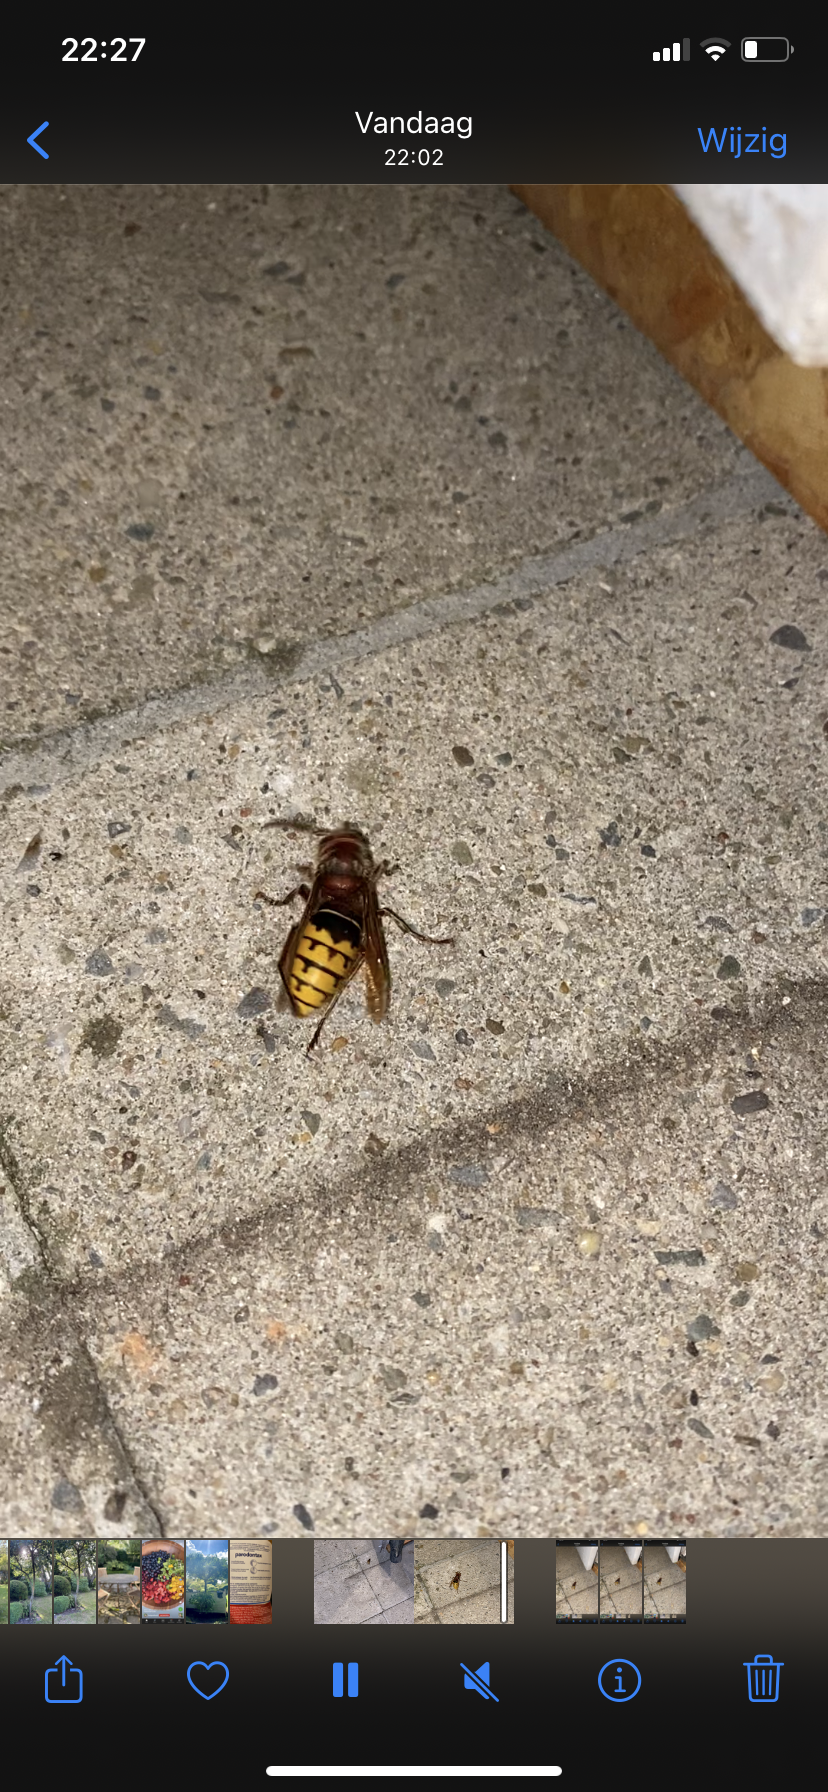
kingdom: Animalia
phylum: Arthropoda
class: Insecta
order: Hymenoptera
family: Vespidae
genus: Vespa
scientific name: Vespa crabro
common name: Hornet
